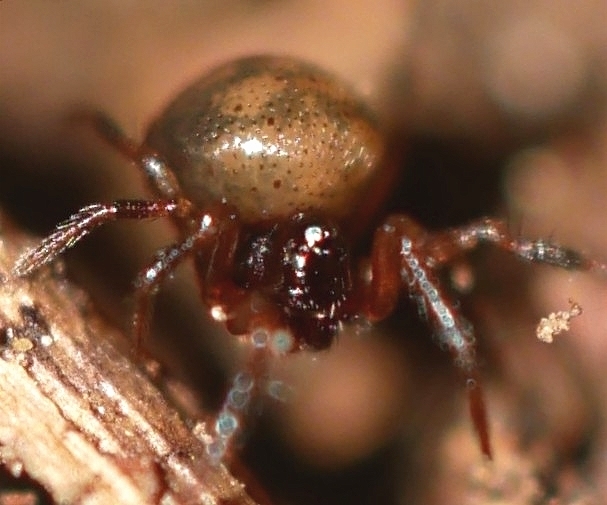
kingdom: Animalia
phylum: Arthropoda
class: Arachnida
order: Araneae
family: Anapidae
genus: Gertschanapis
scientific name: Gertschanapis shantzi
